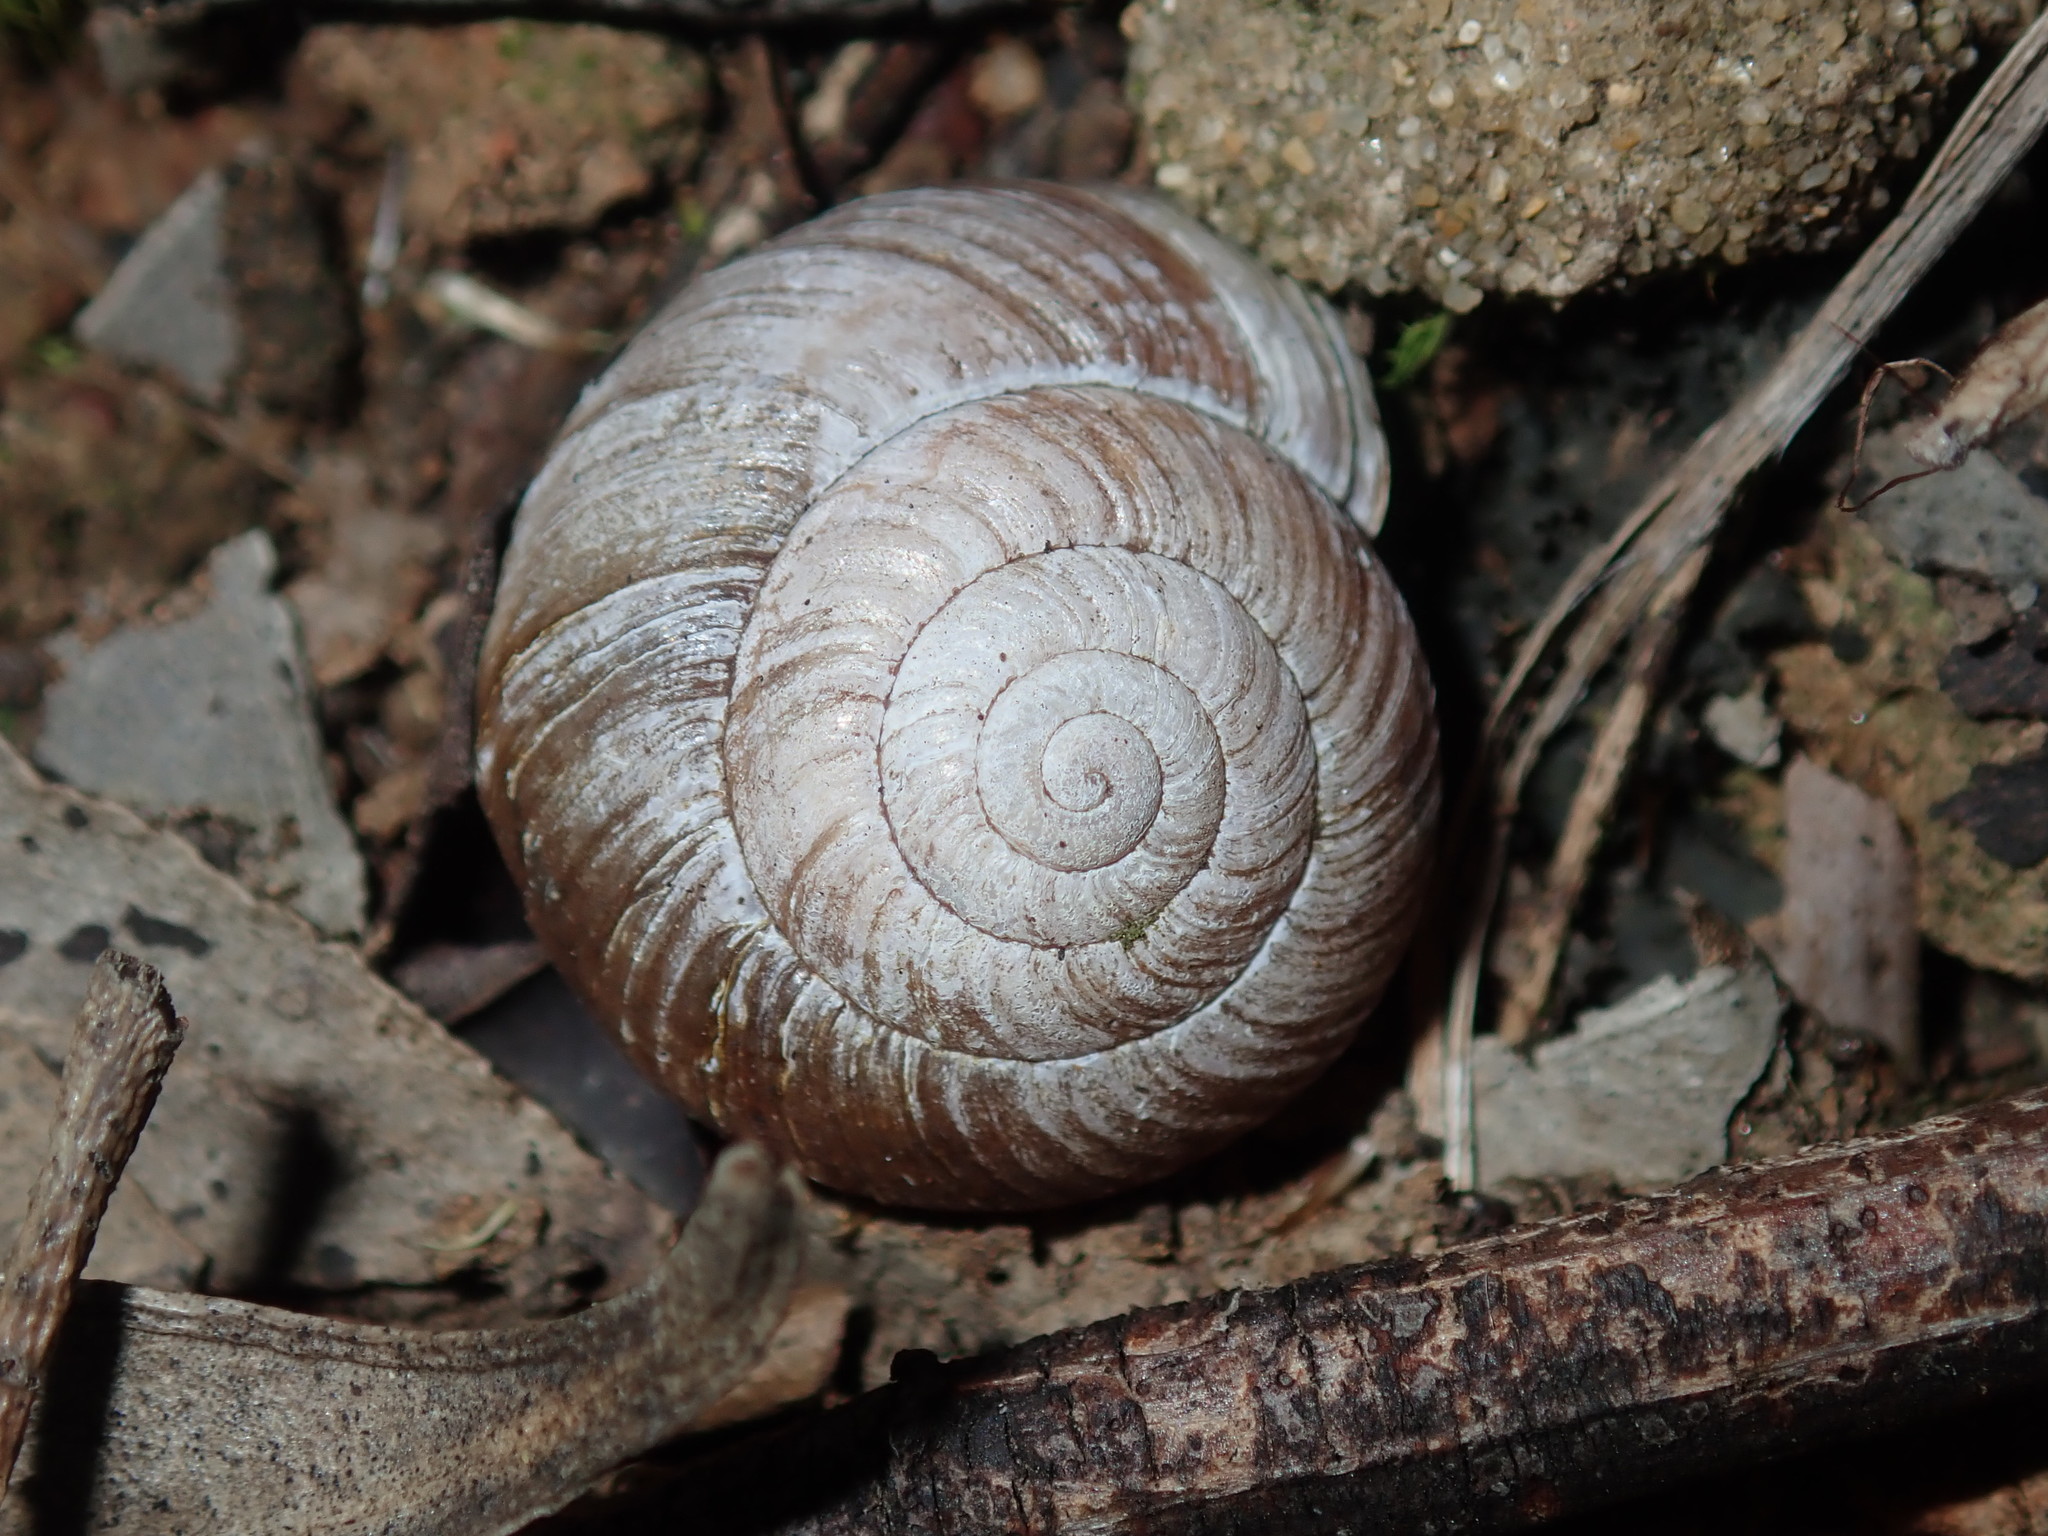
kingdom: Animalia
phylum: Mollusca
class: Gastropoda
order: Stylommatophora
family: Camaenidae
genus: Sauroconcha
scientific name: Sauroconcha sheai
